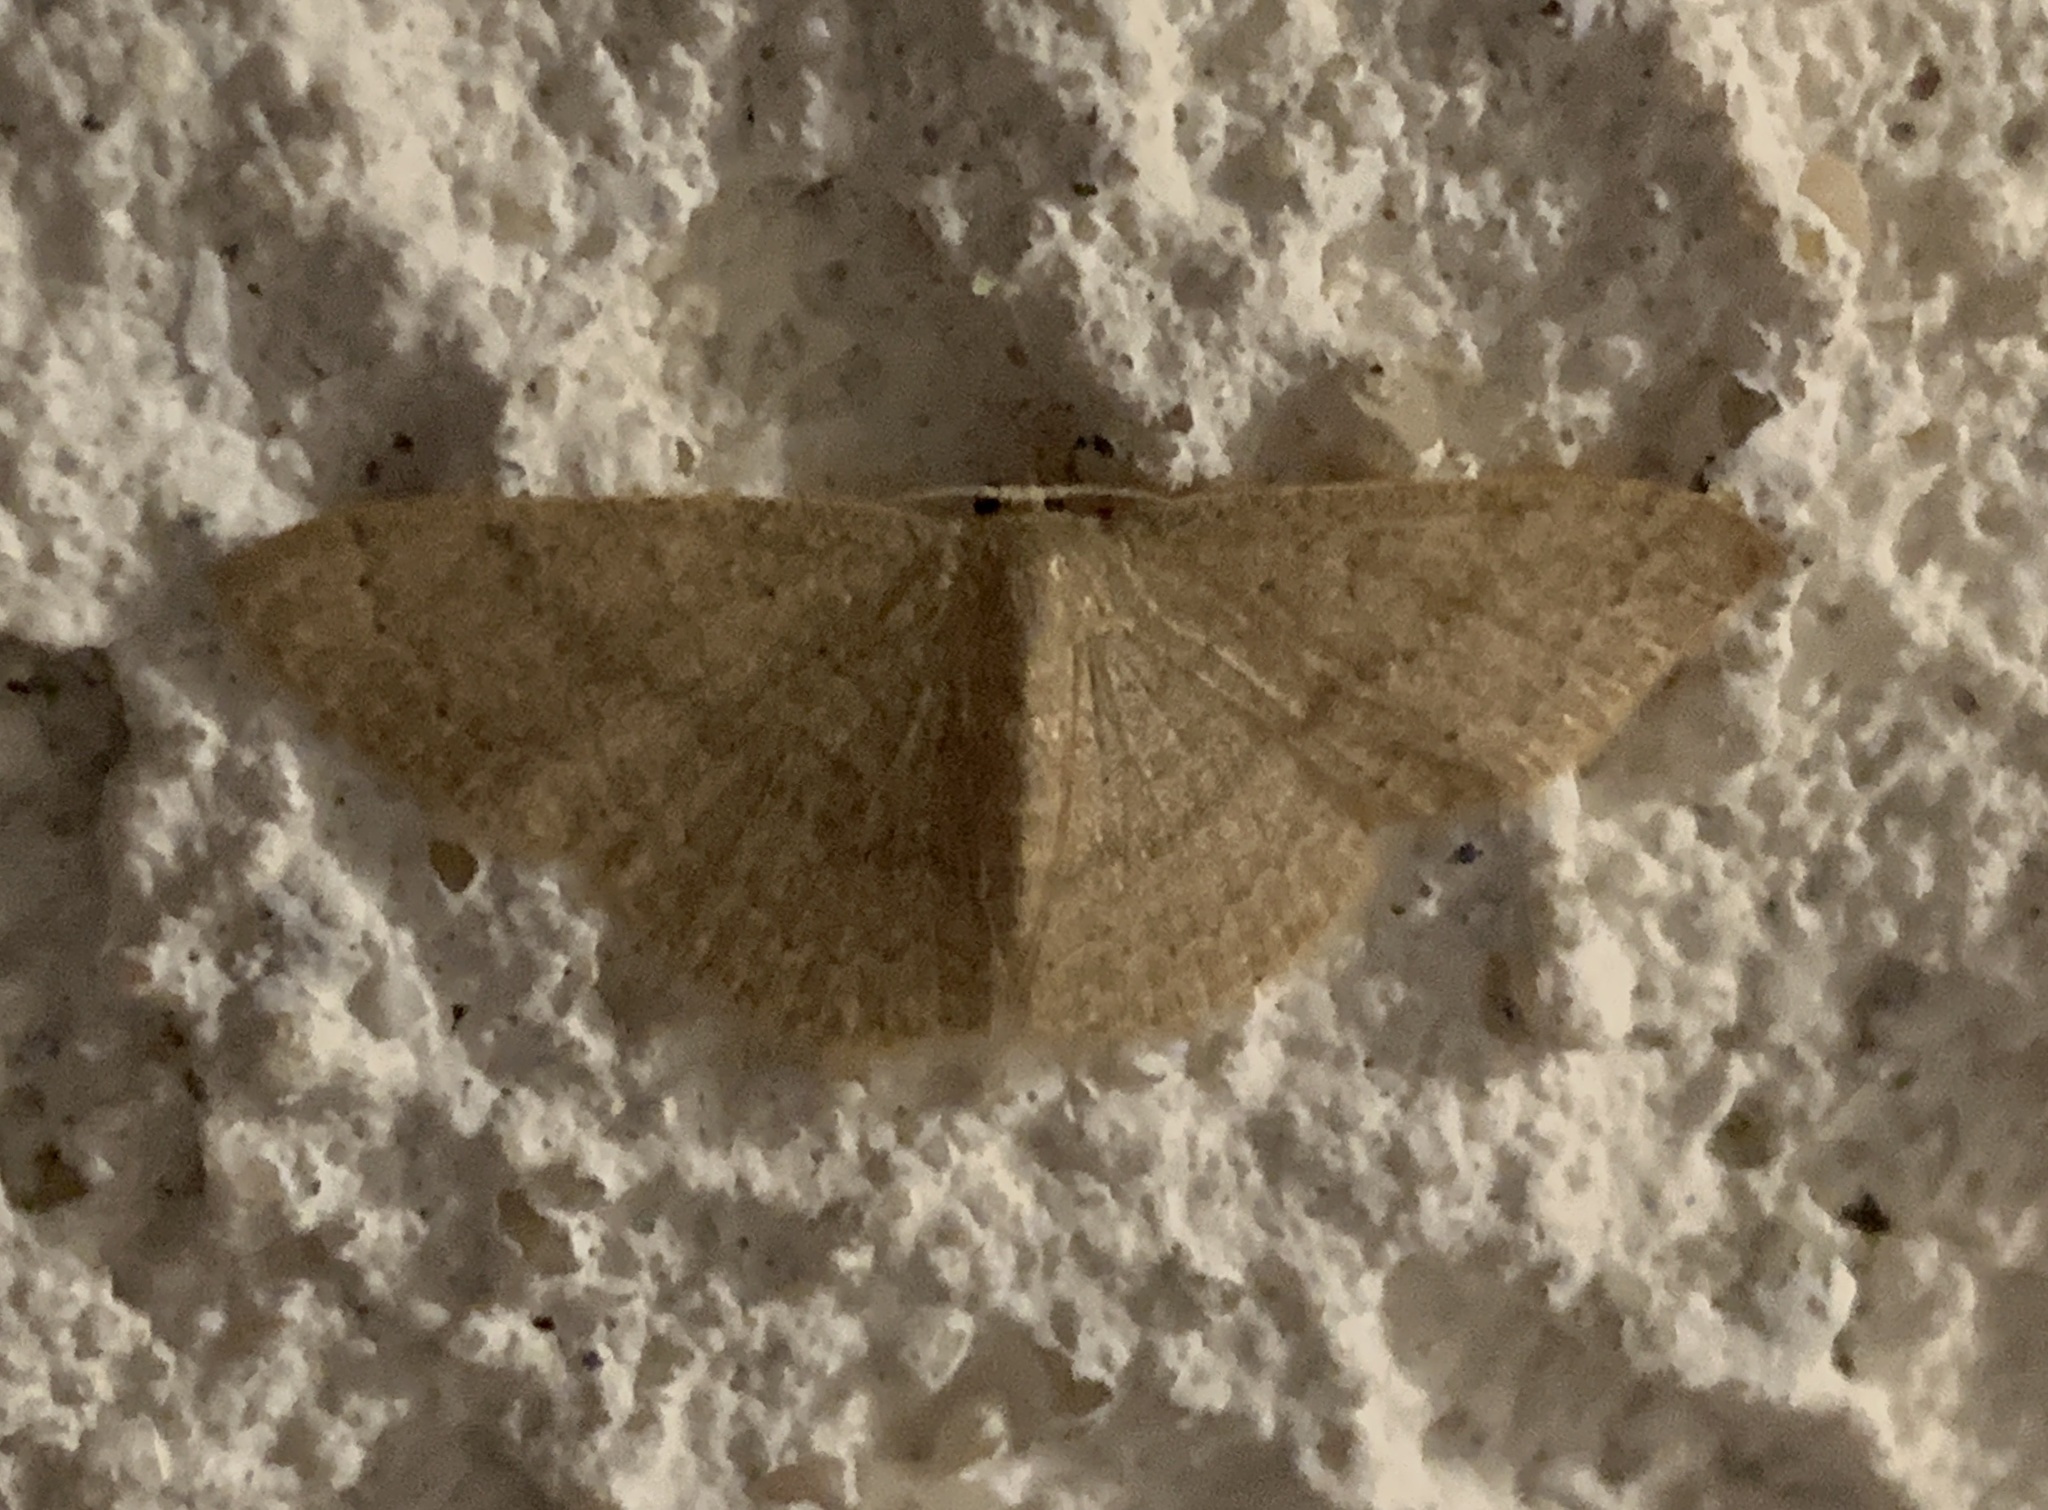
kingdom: Animalia
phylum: Arthropoda
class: Insecta
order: Lepidoptera
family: Geometridae
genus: Pleuroprucha
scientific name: Pleuroprucha insulsaria
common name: Common tan wave
